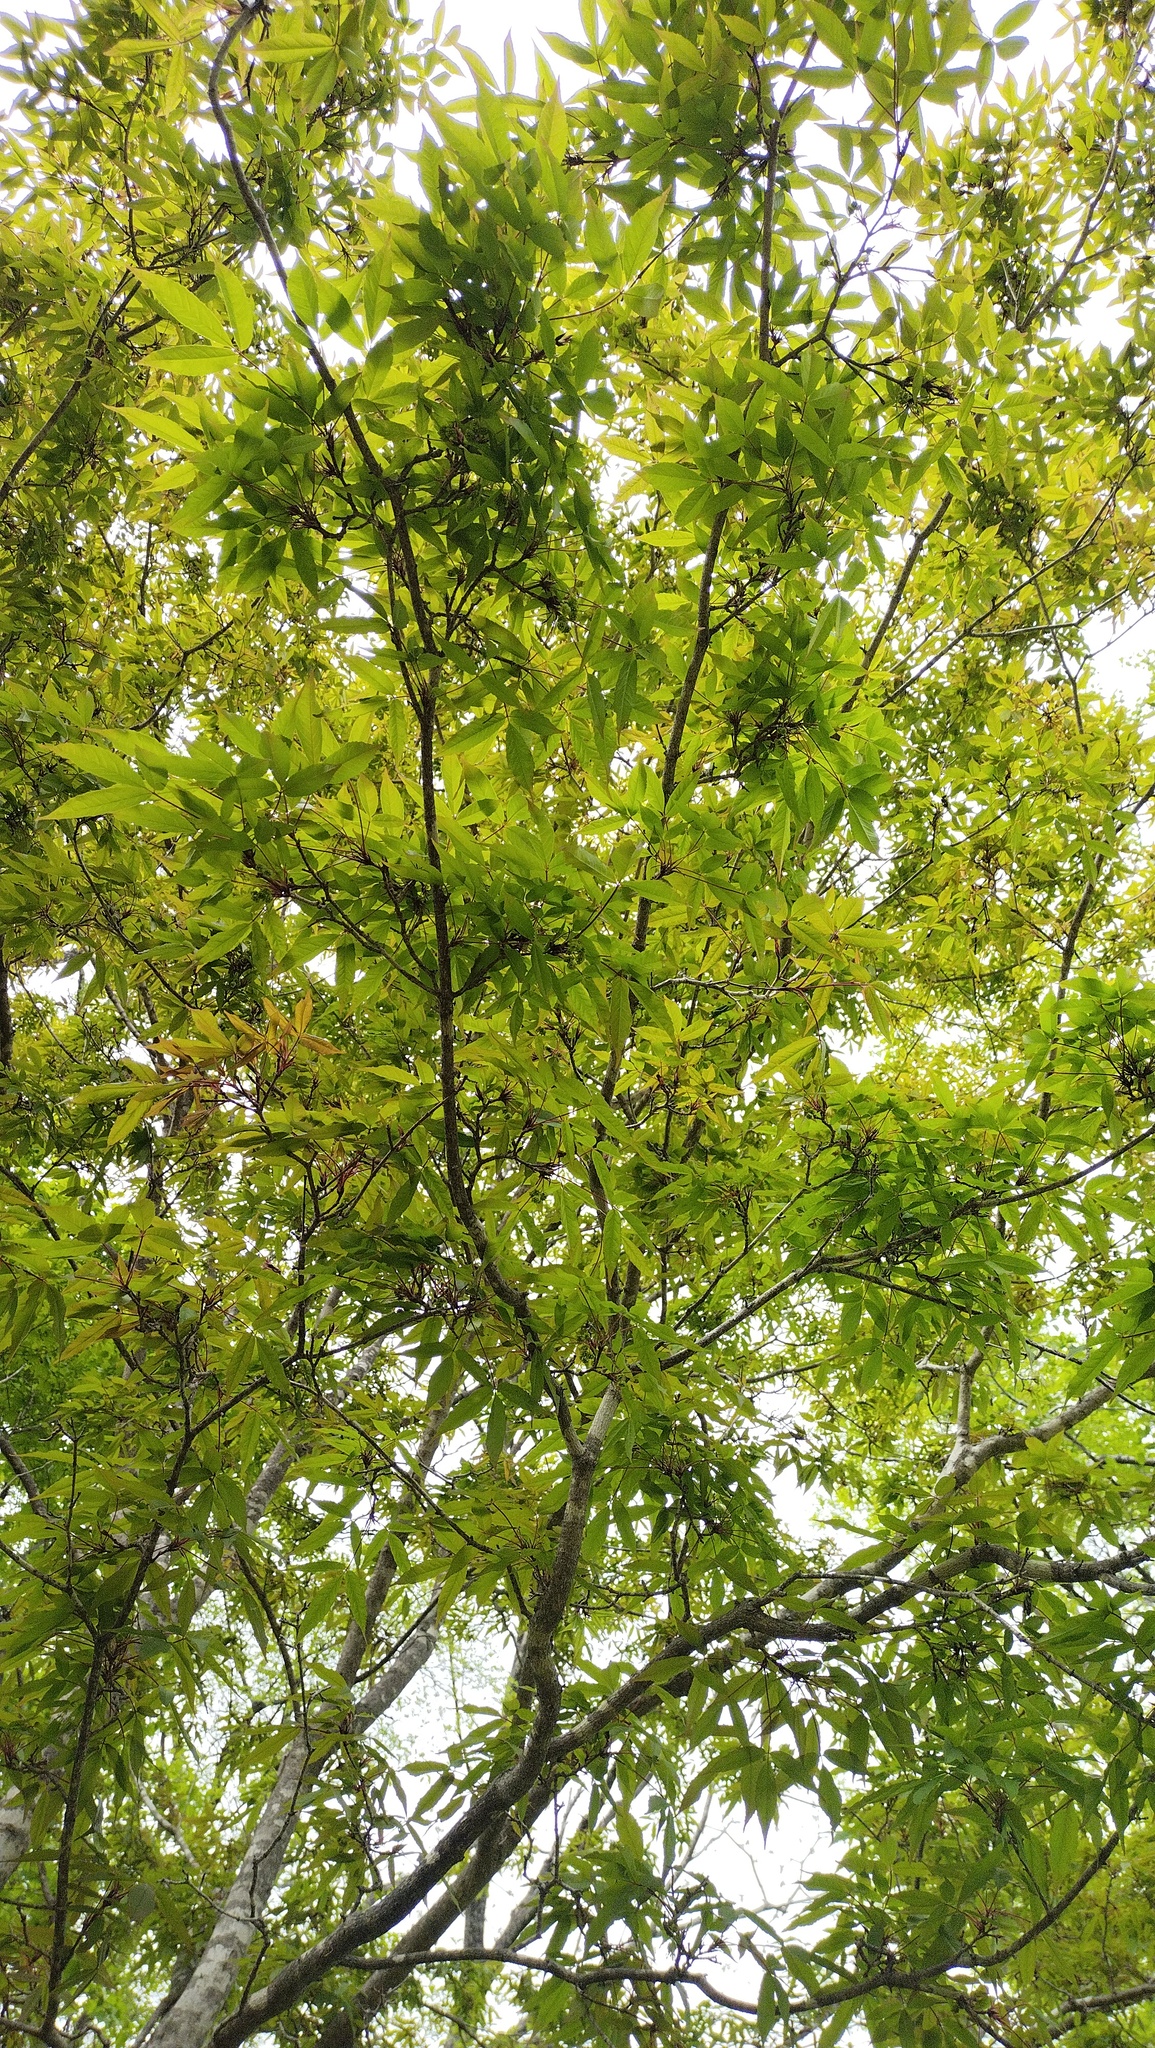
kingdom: Plantae
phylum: Tracheophyta
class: Magnoliopsida
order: Sapindales
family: Sapindaceae
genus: Acer
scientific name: Acer mandshuricum
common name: Manchurian maple
